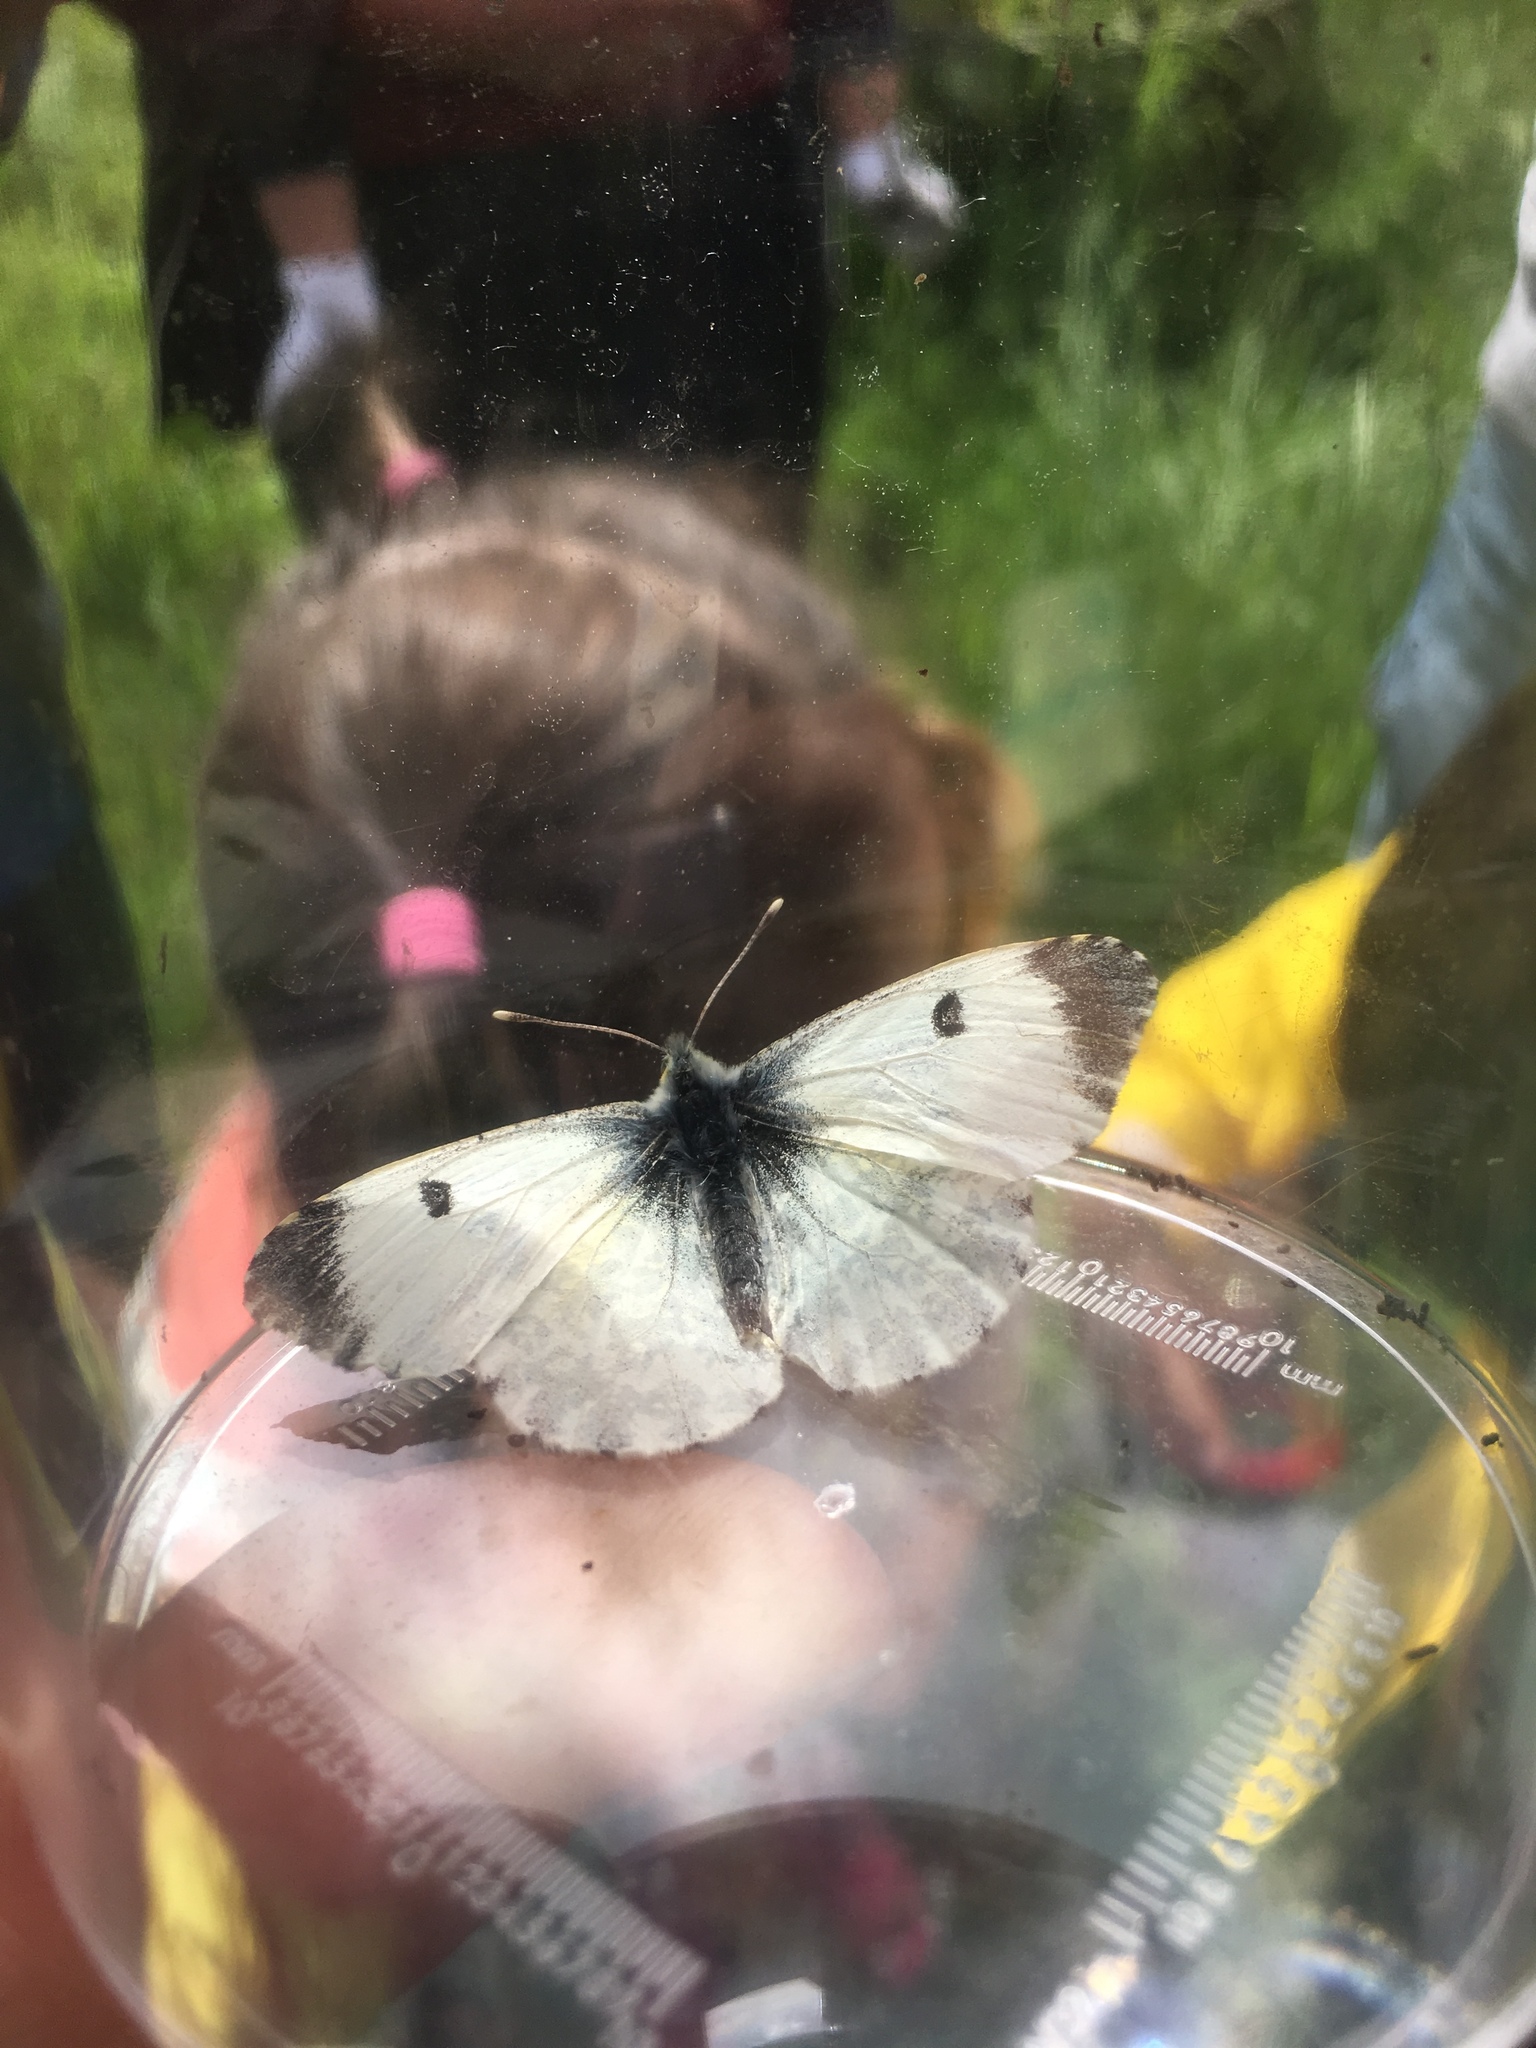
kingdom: Animalia
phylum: Arthropoda
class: Insecta
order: Lepidoptera
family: Pieridae
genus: Anthocharis
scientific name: Anthocharis cardamines
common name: Orange-tip
